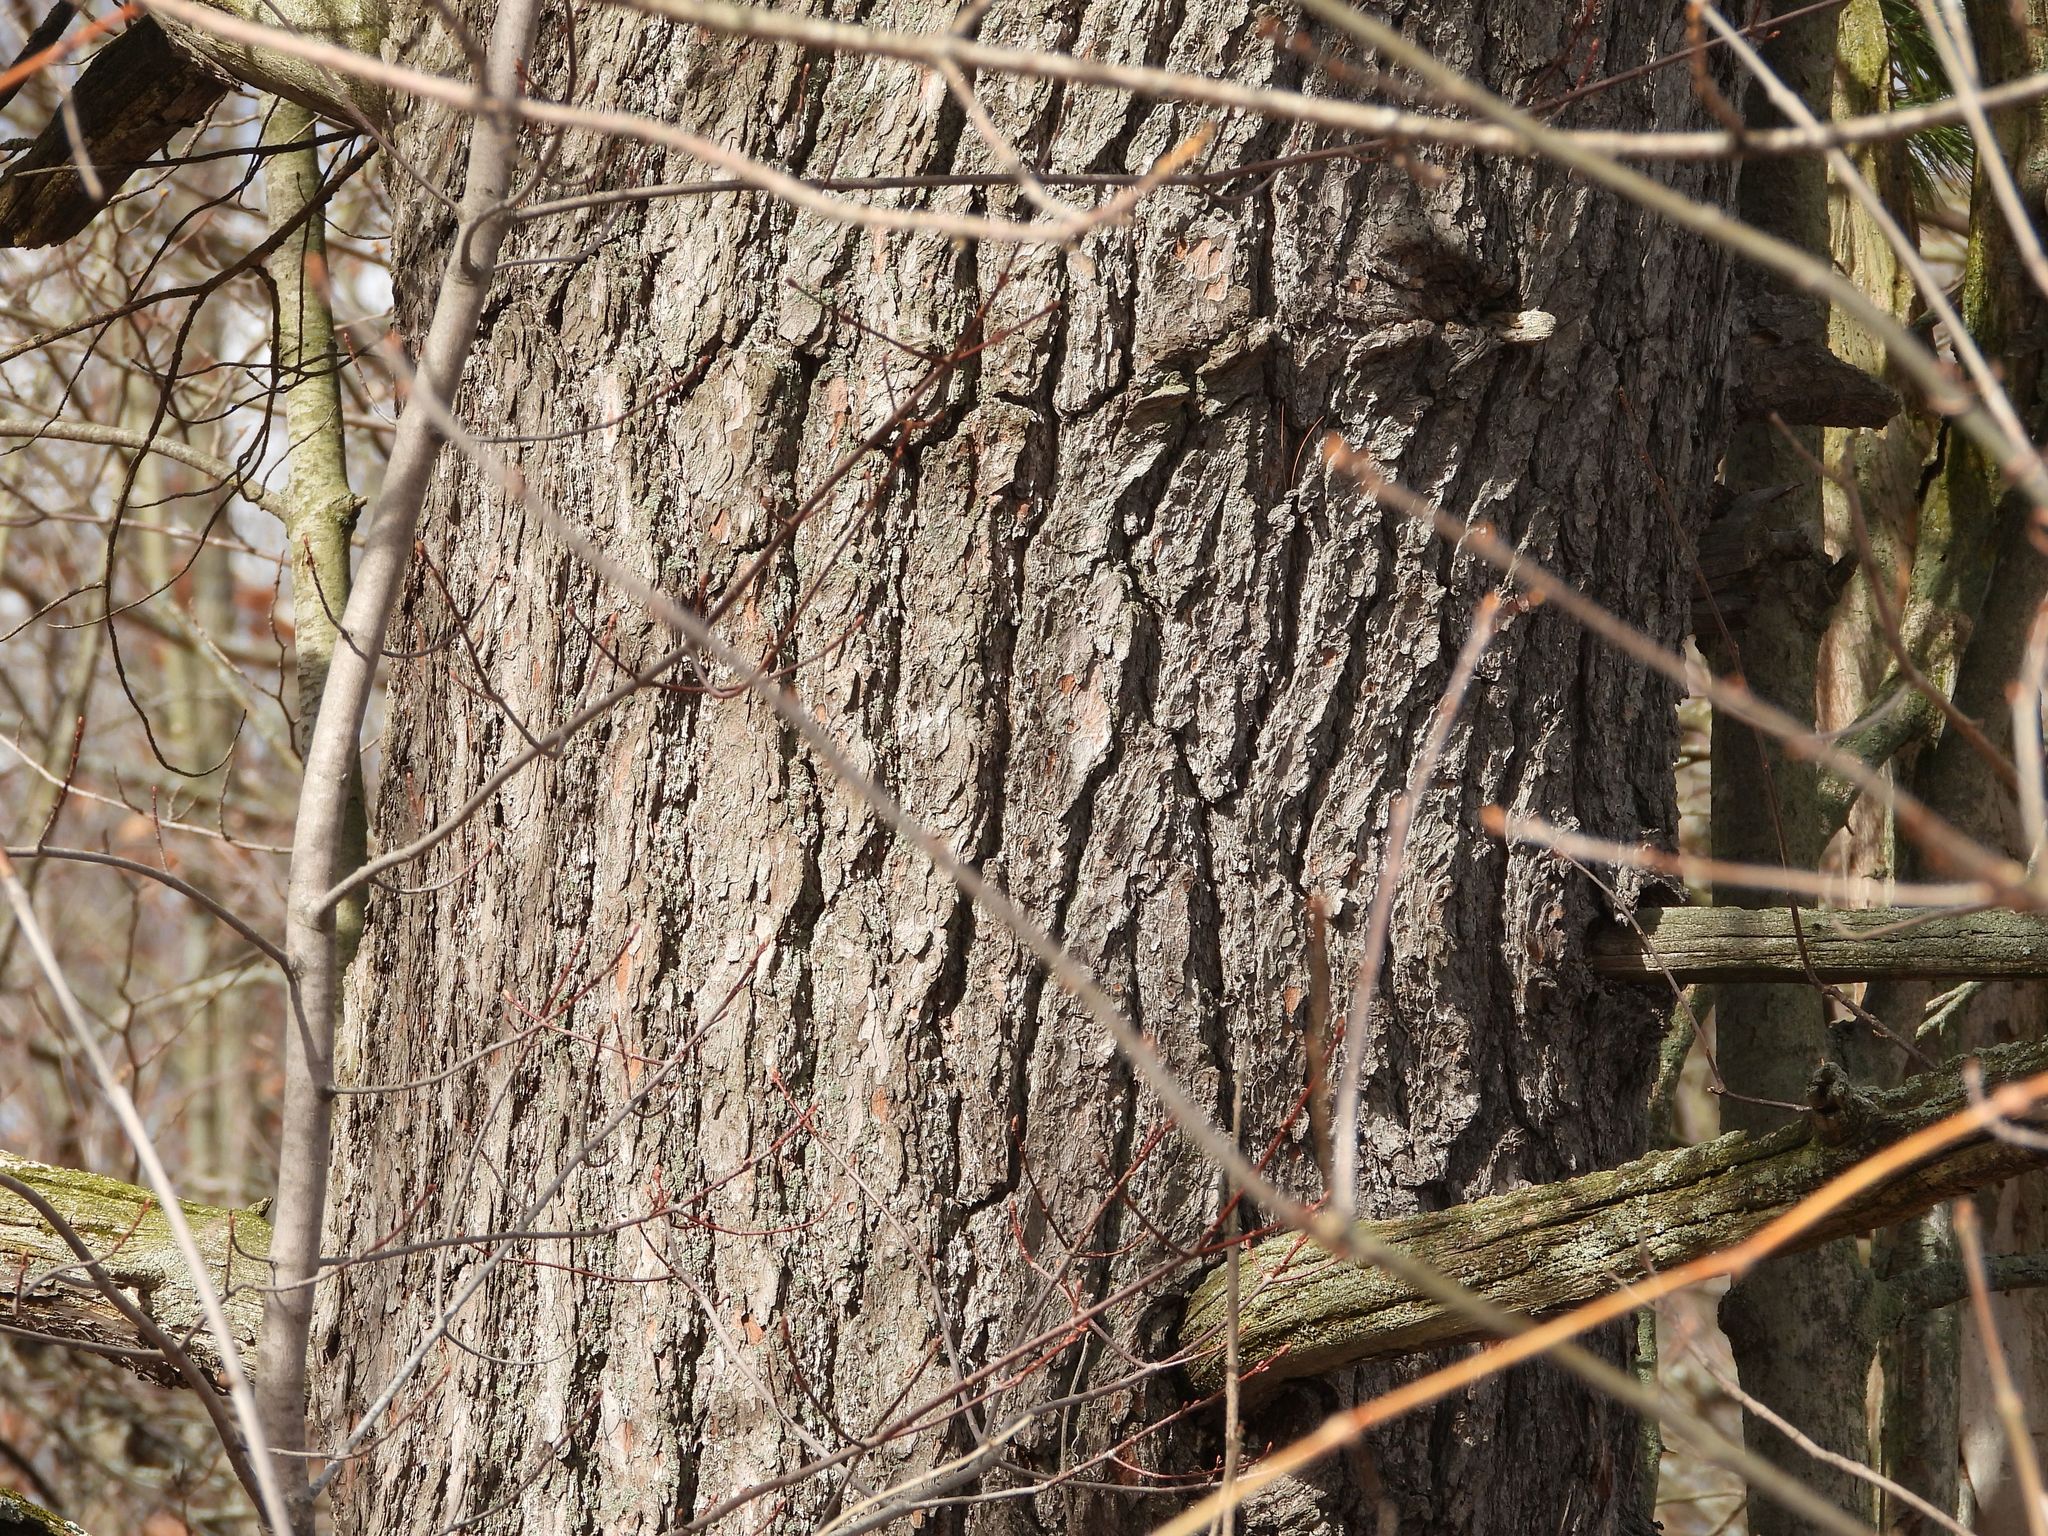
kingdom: Plantae
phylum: Tracheophyta
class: Pinopsida
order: Pinales
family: Pinaceae
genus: Pinus
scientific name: Pinus strobus
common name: Weymouth pine
